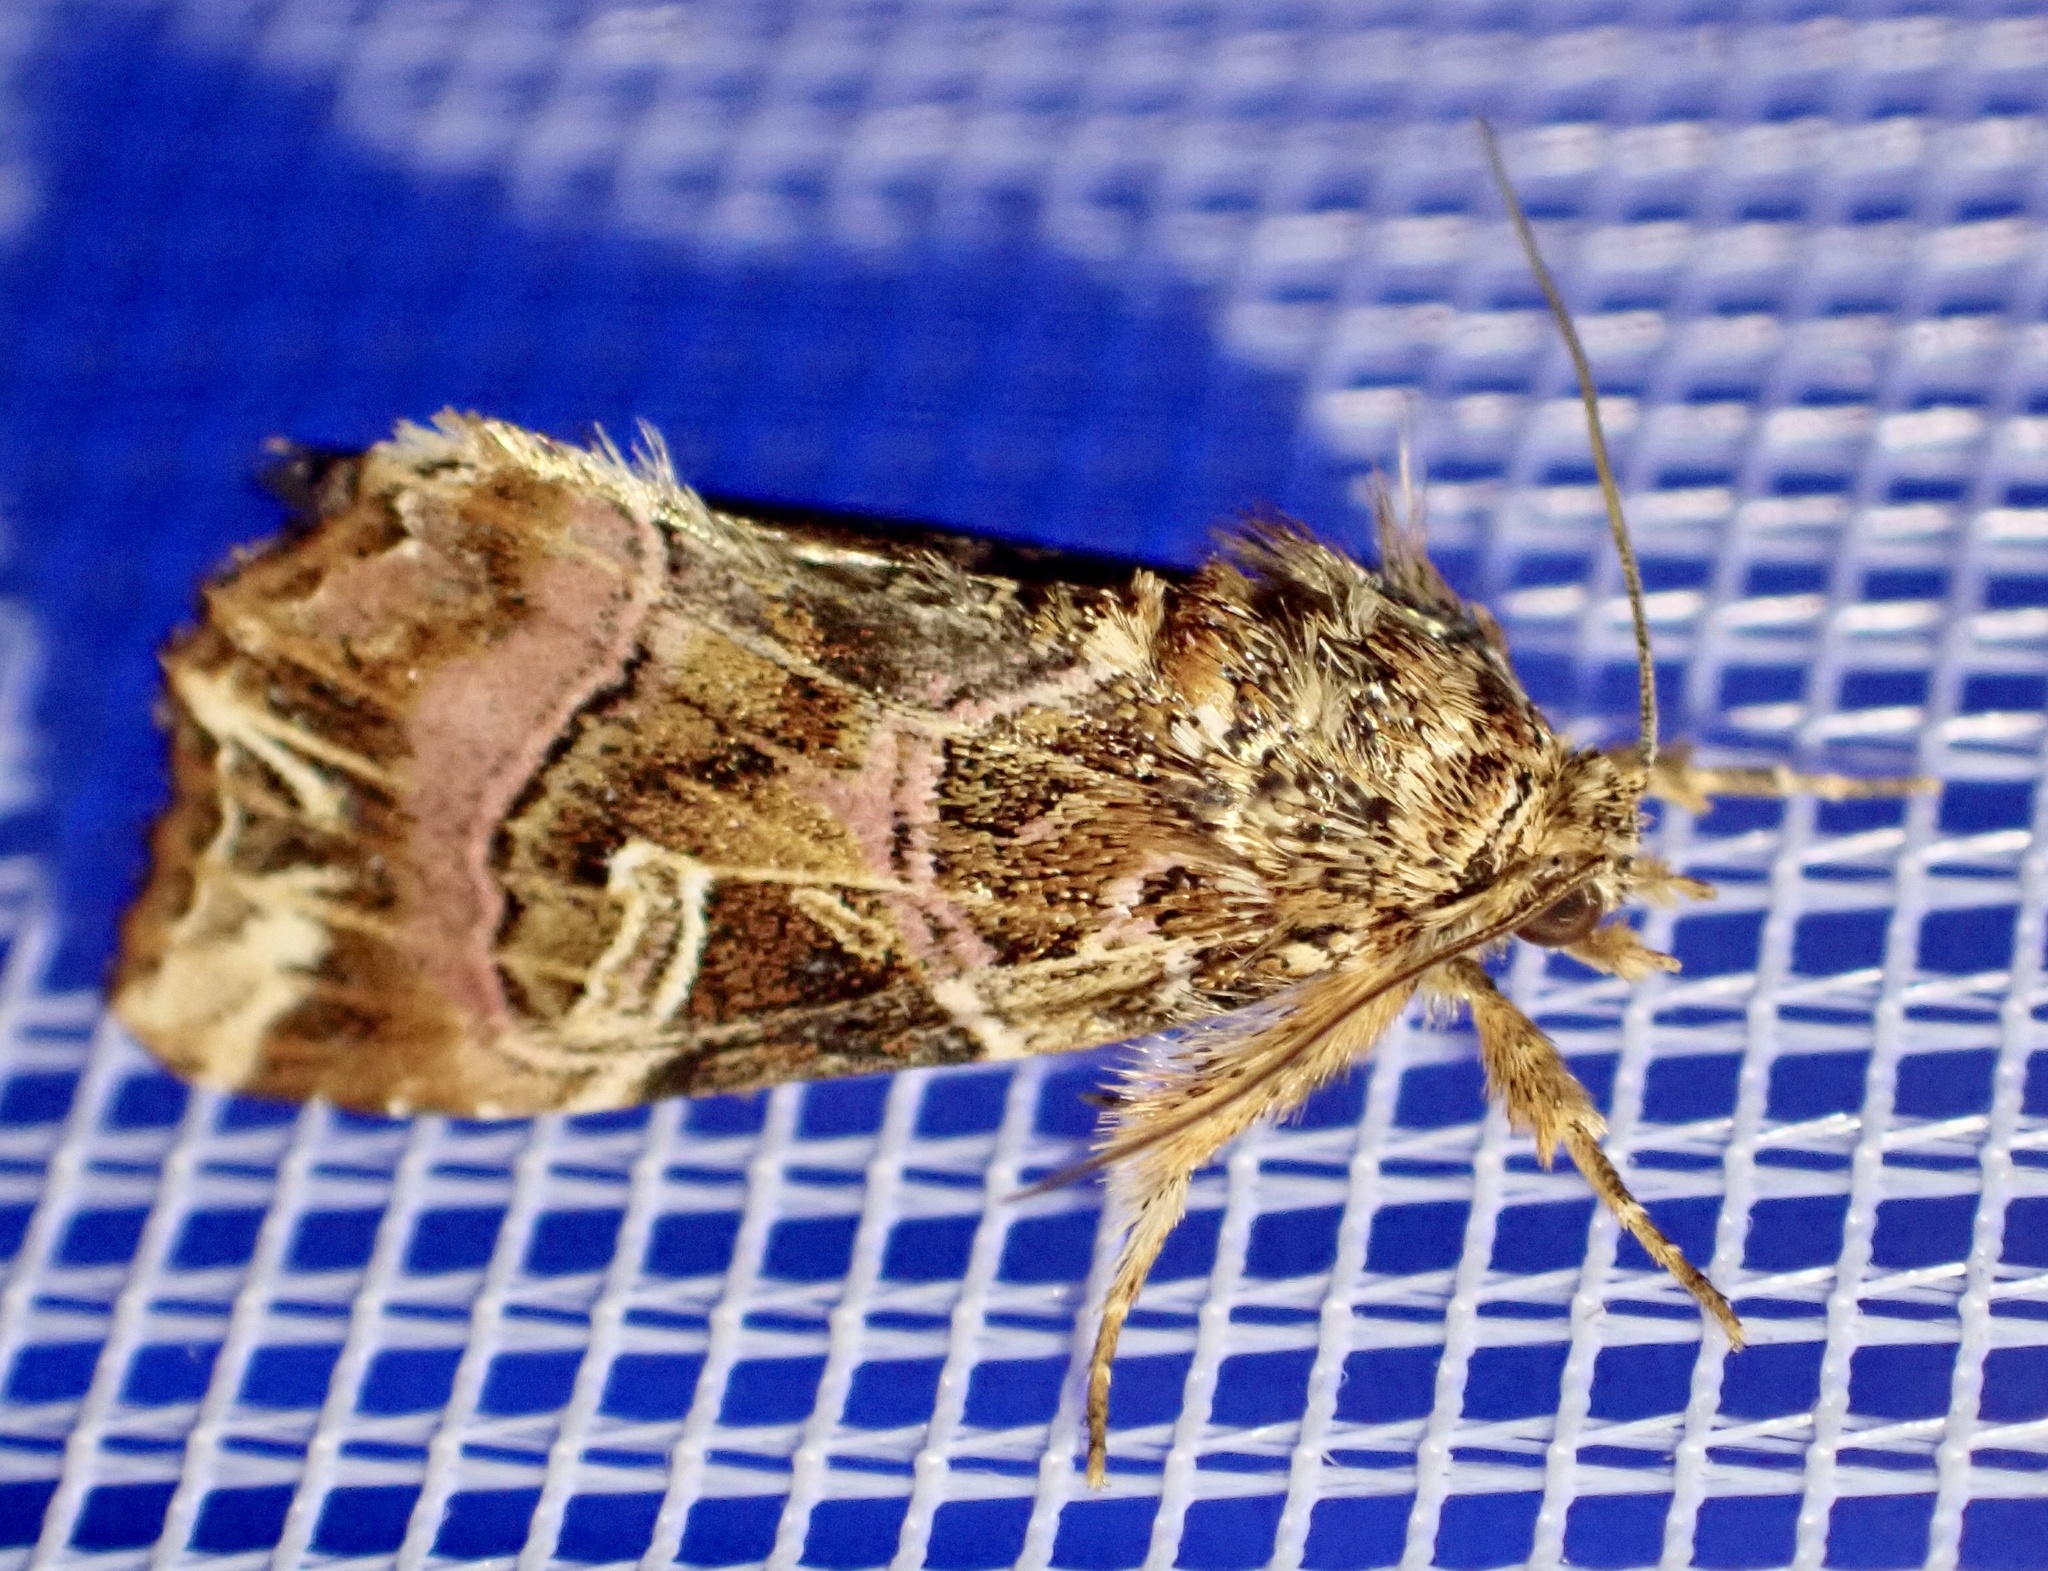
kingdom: Animalia
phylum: Arthropoda
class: Insecta
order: Lepidoptera
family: Noctuidae
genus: Callopistria
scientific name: Callopistria juventina
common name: Latin
